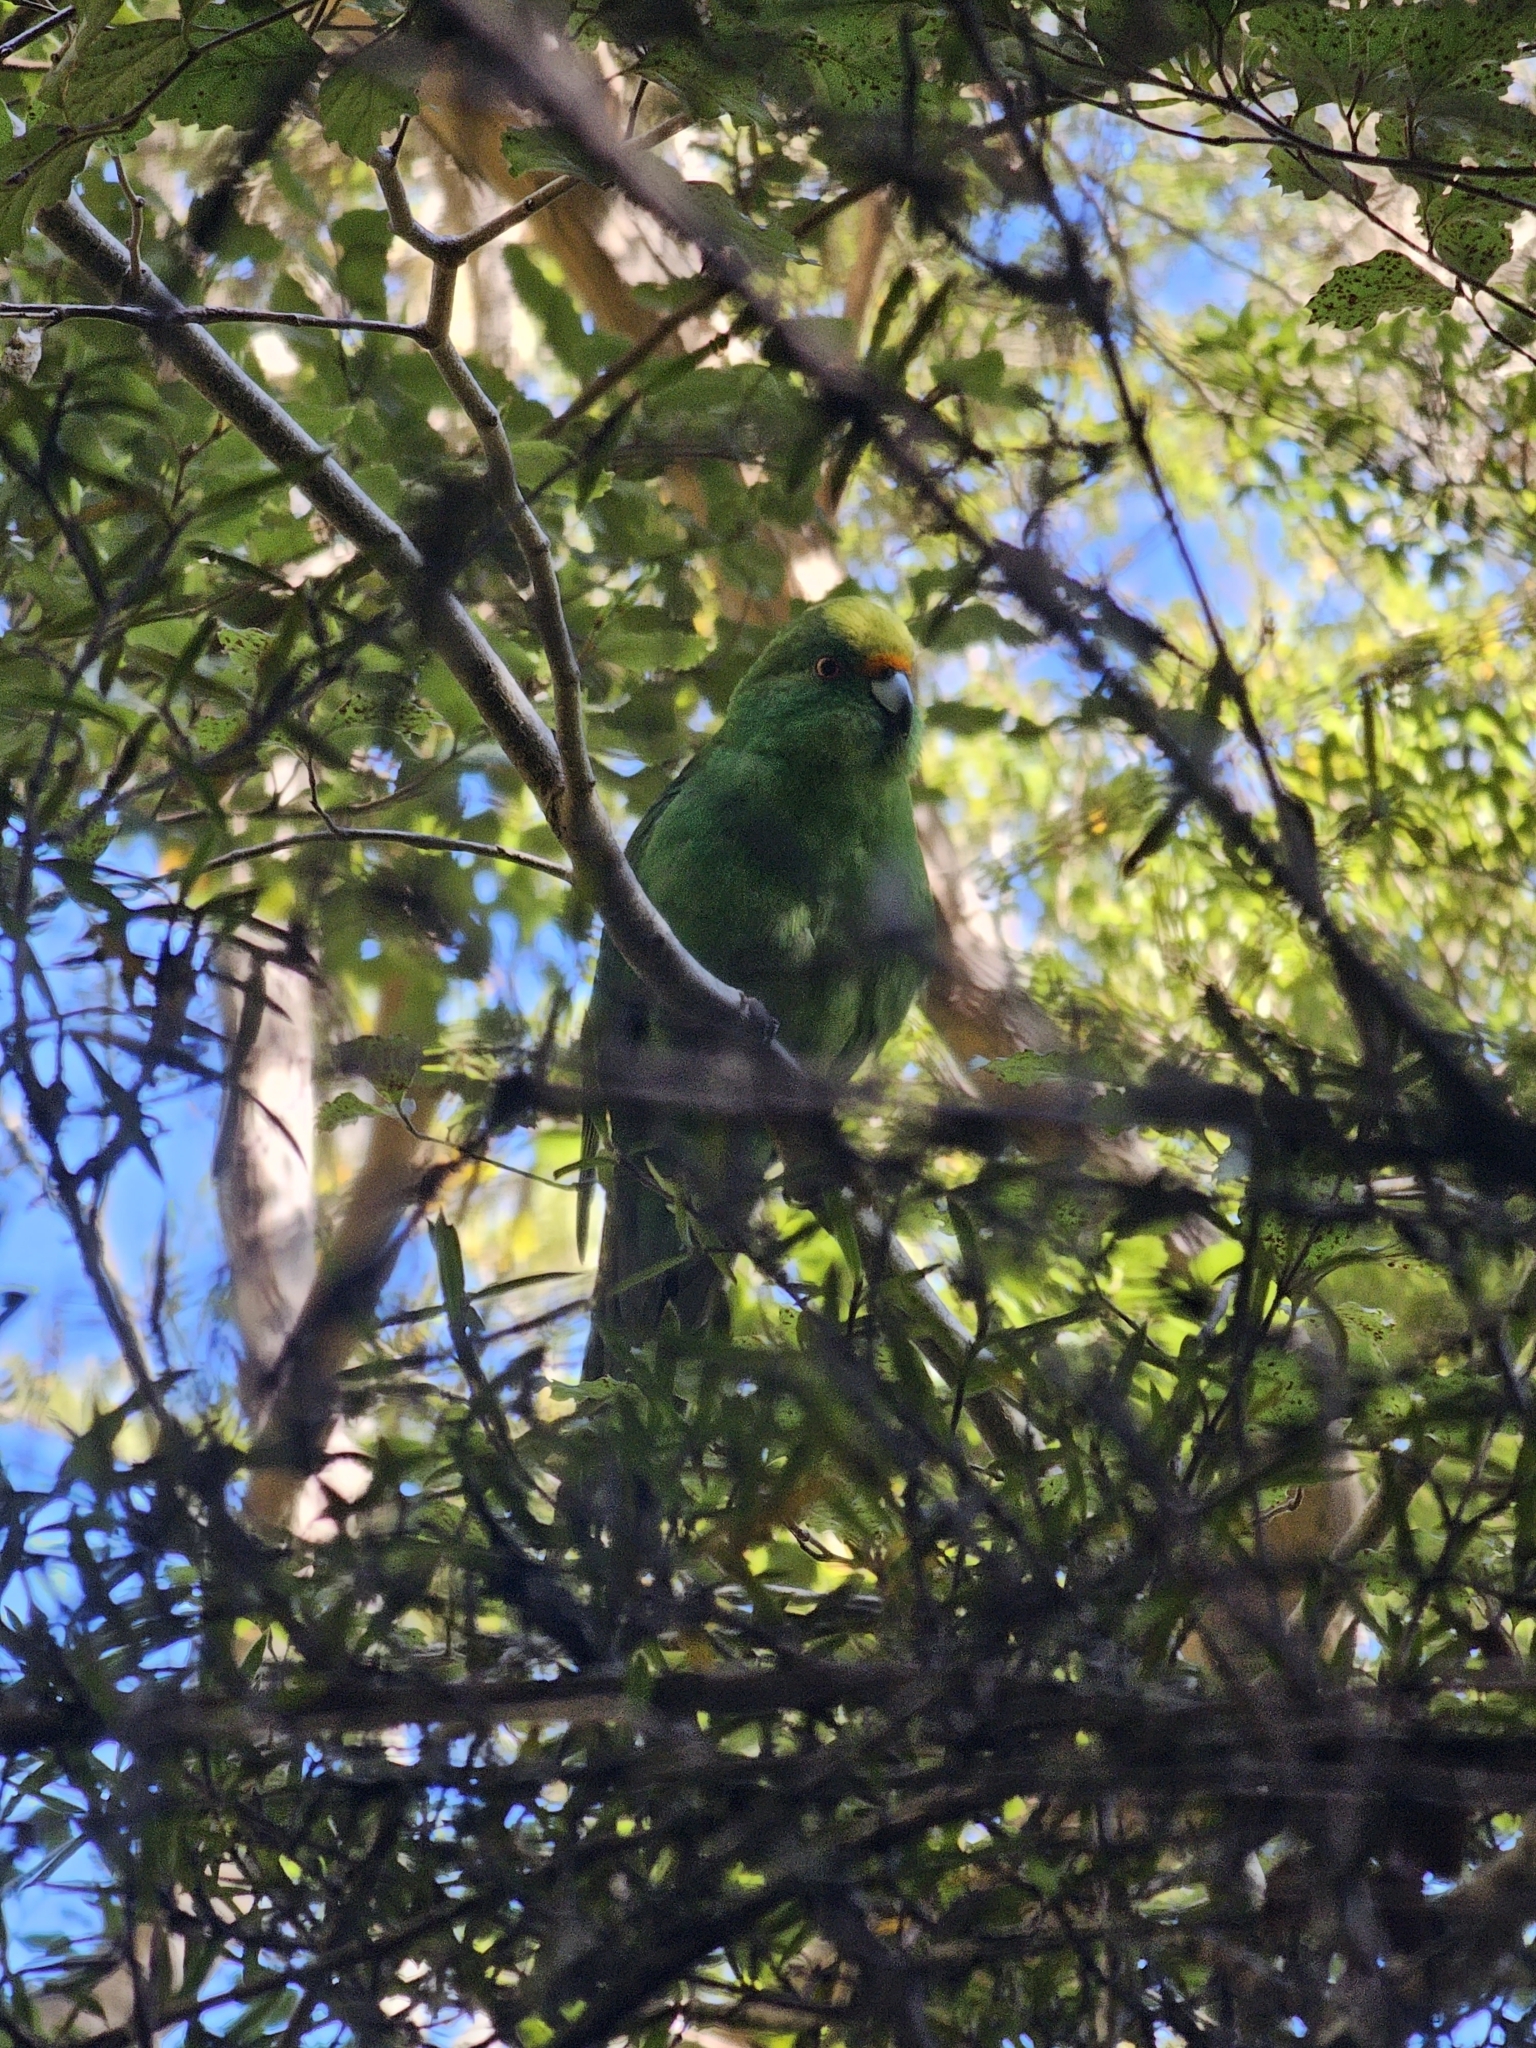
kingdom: Animalia
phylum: Chordata
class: Aves
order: Psittaciformes
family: Psittacidae
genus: Cyanoramphus
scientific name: Cyanoramphus malherbi
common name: Malherbe's parakeet
